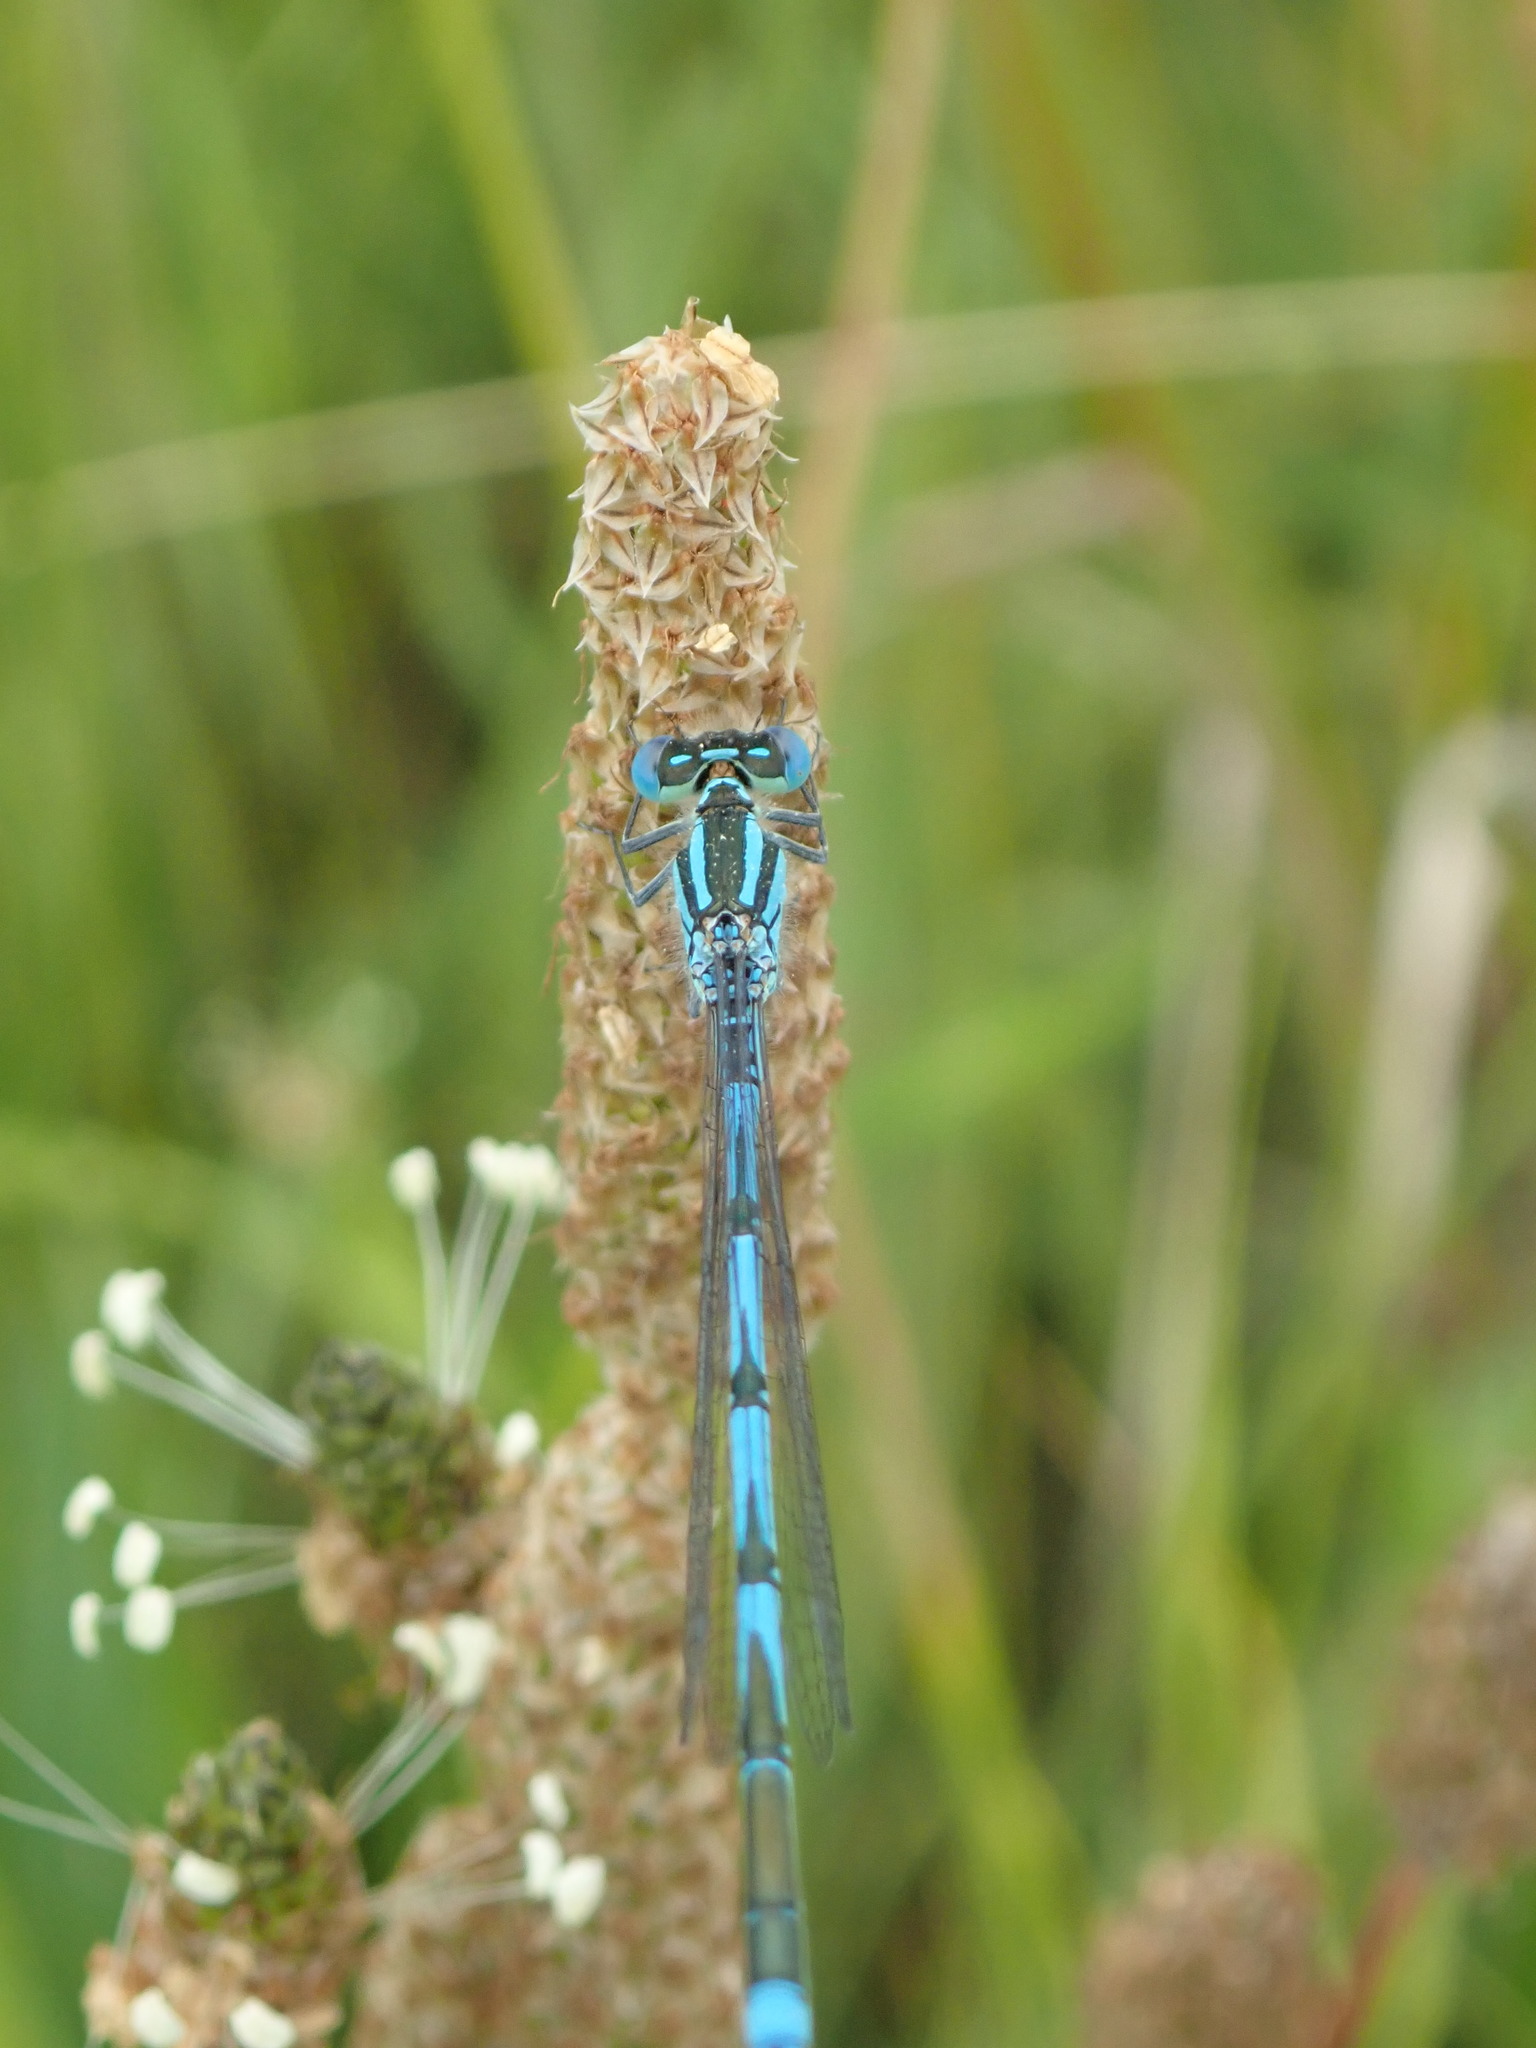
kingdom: Animalia
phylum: Arthropoda
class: Insecta
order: Odonata
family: Coenagrionidae
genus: Erythromma
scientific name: Erythromma lindenii
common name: Blue-eye
